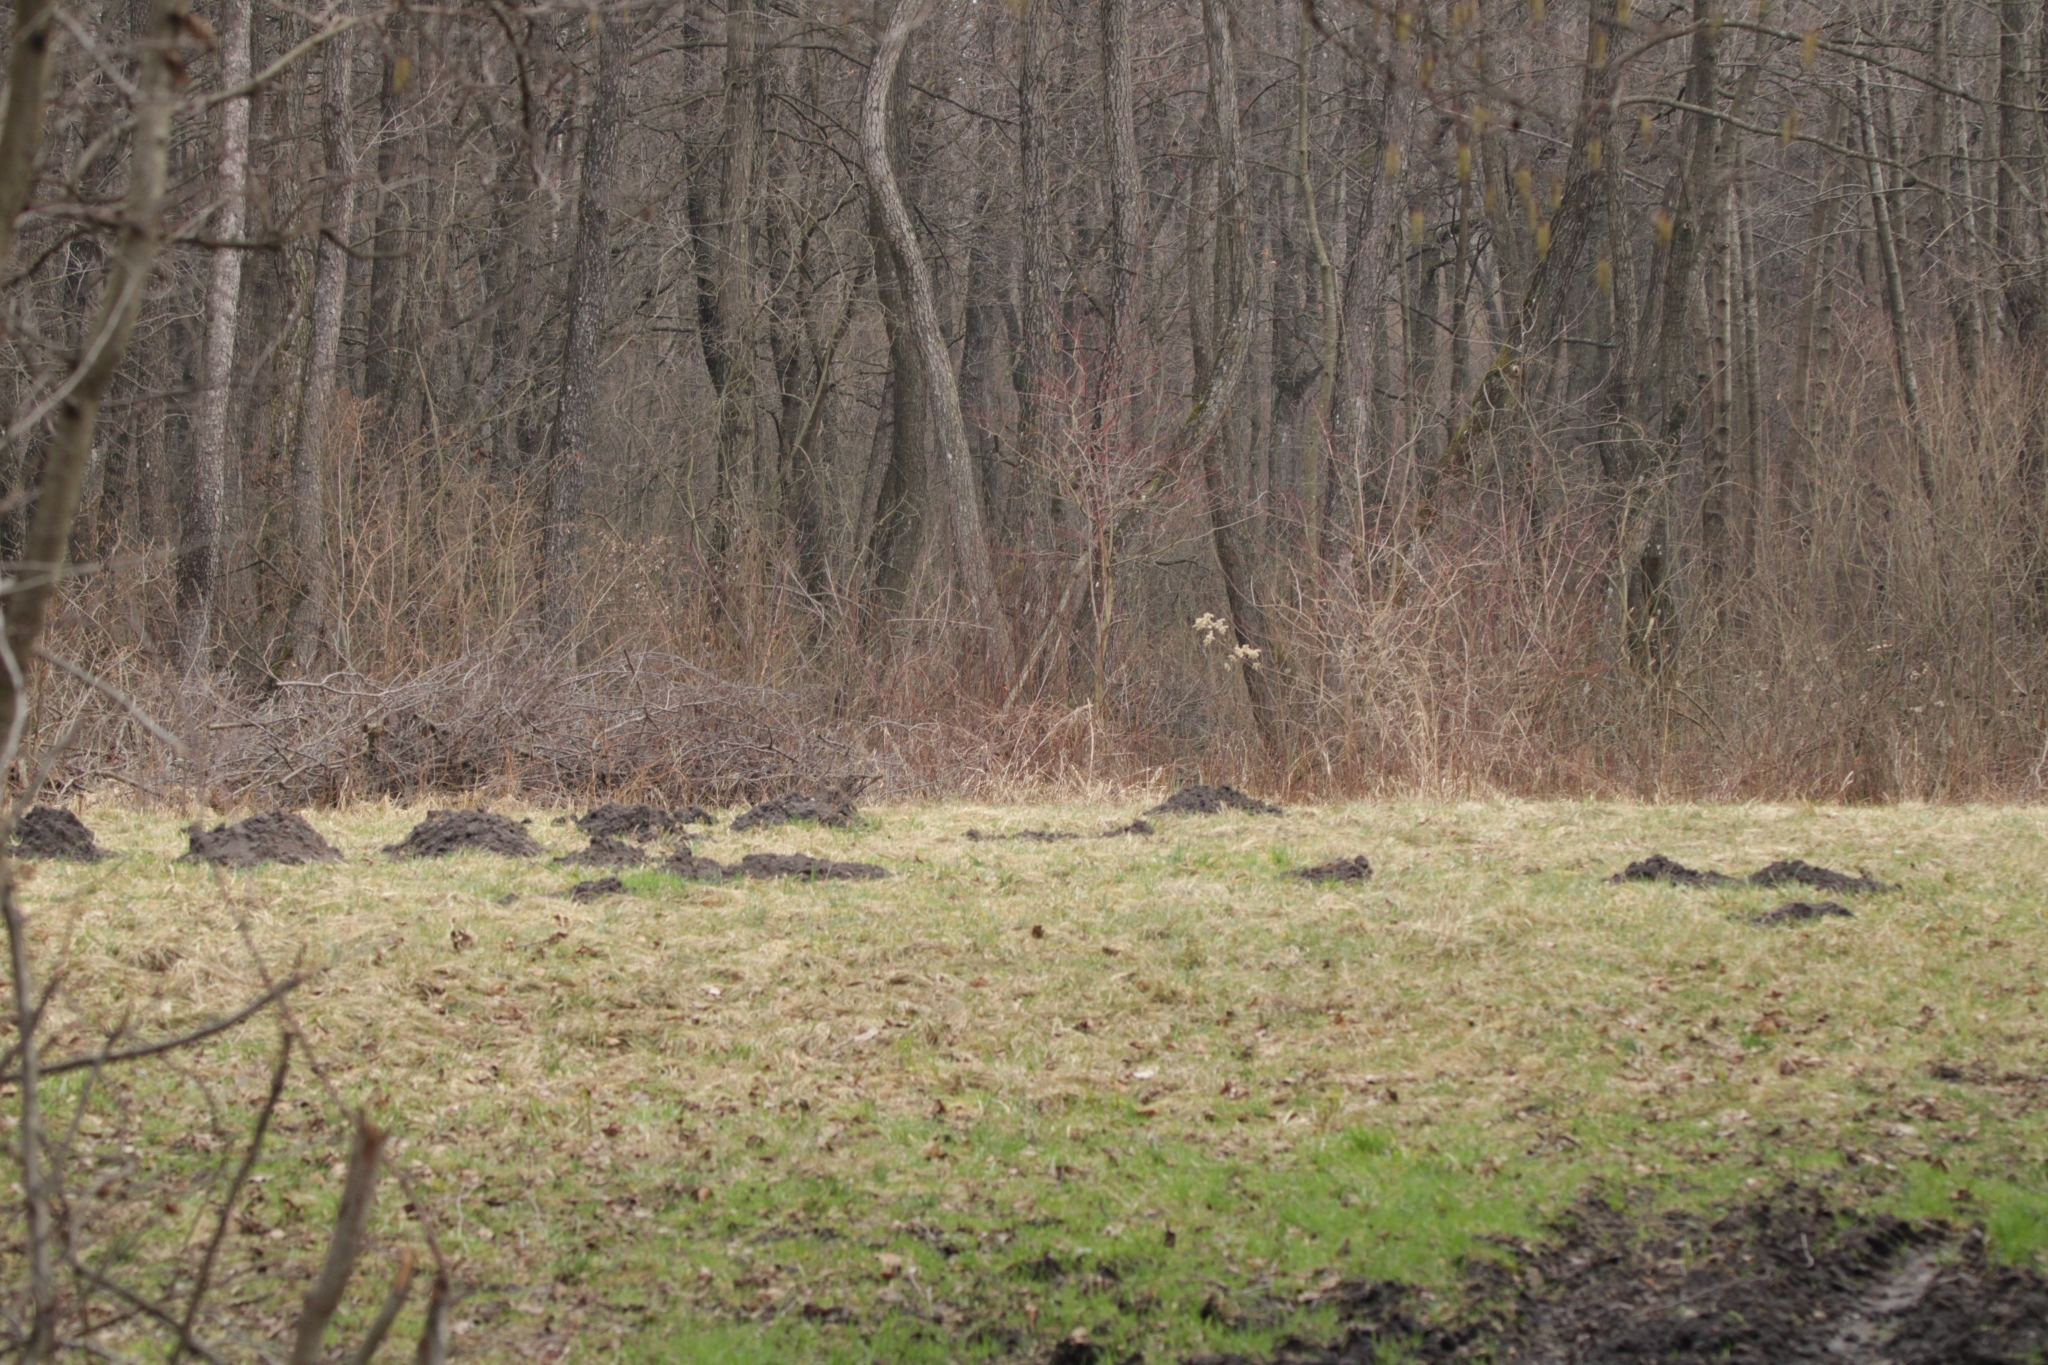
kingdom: Animalia
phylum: Chordata
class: Mammalia
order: Soricomorpha
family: Talpidae
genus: Talpa
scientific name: Talpa europaea
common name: European mole
